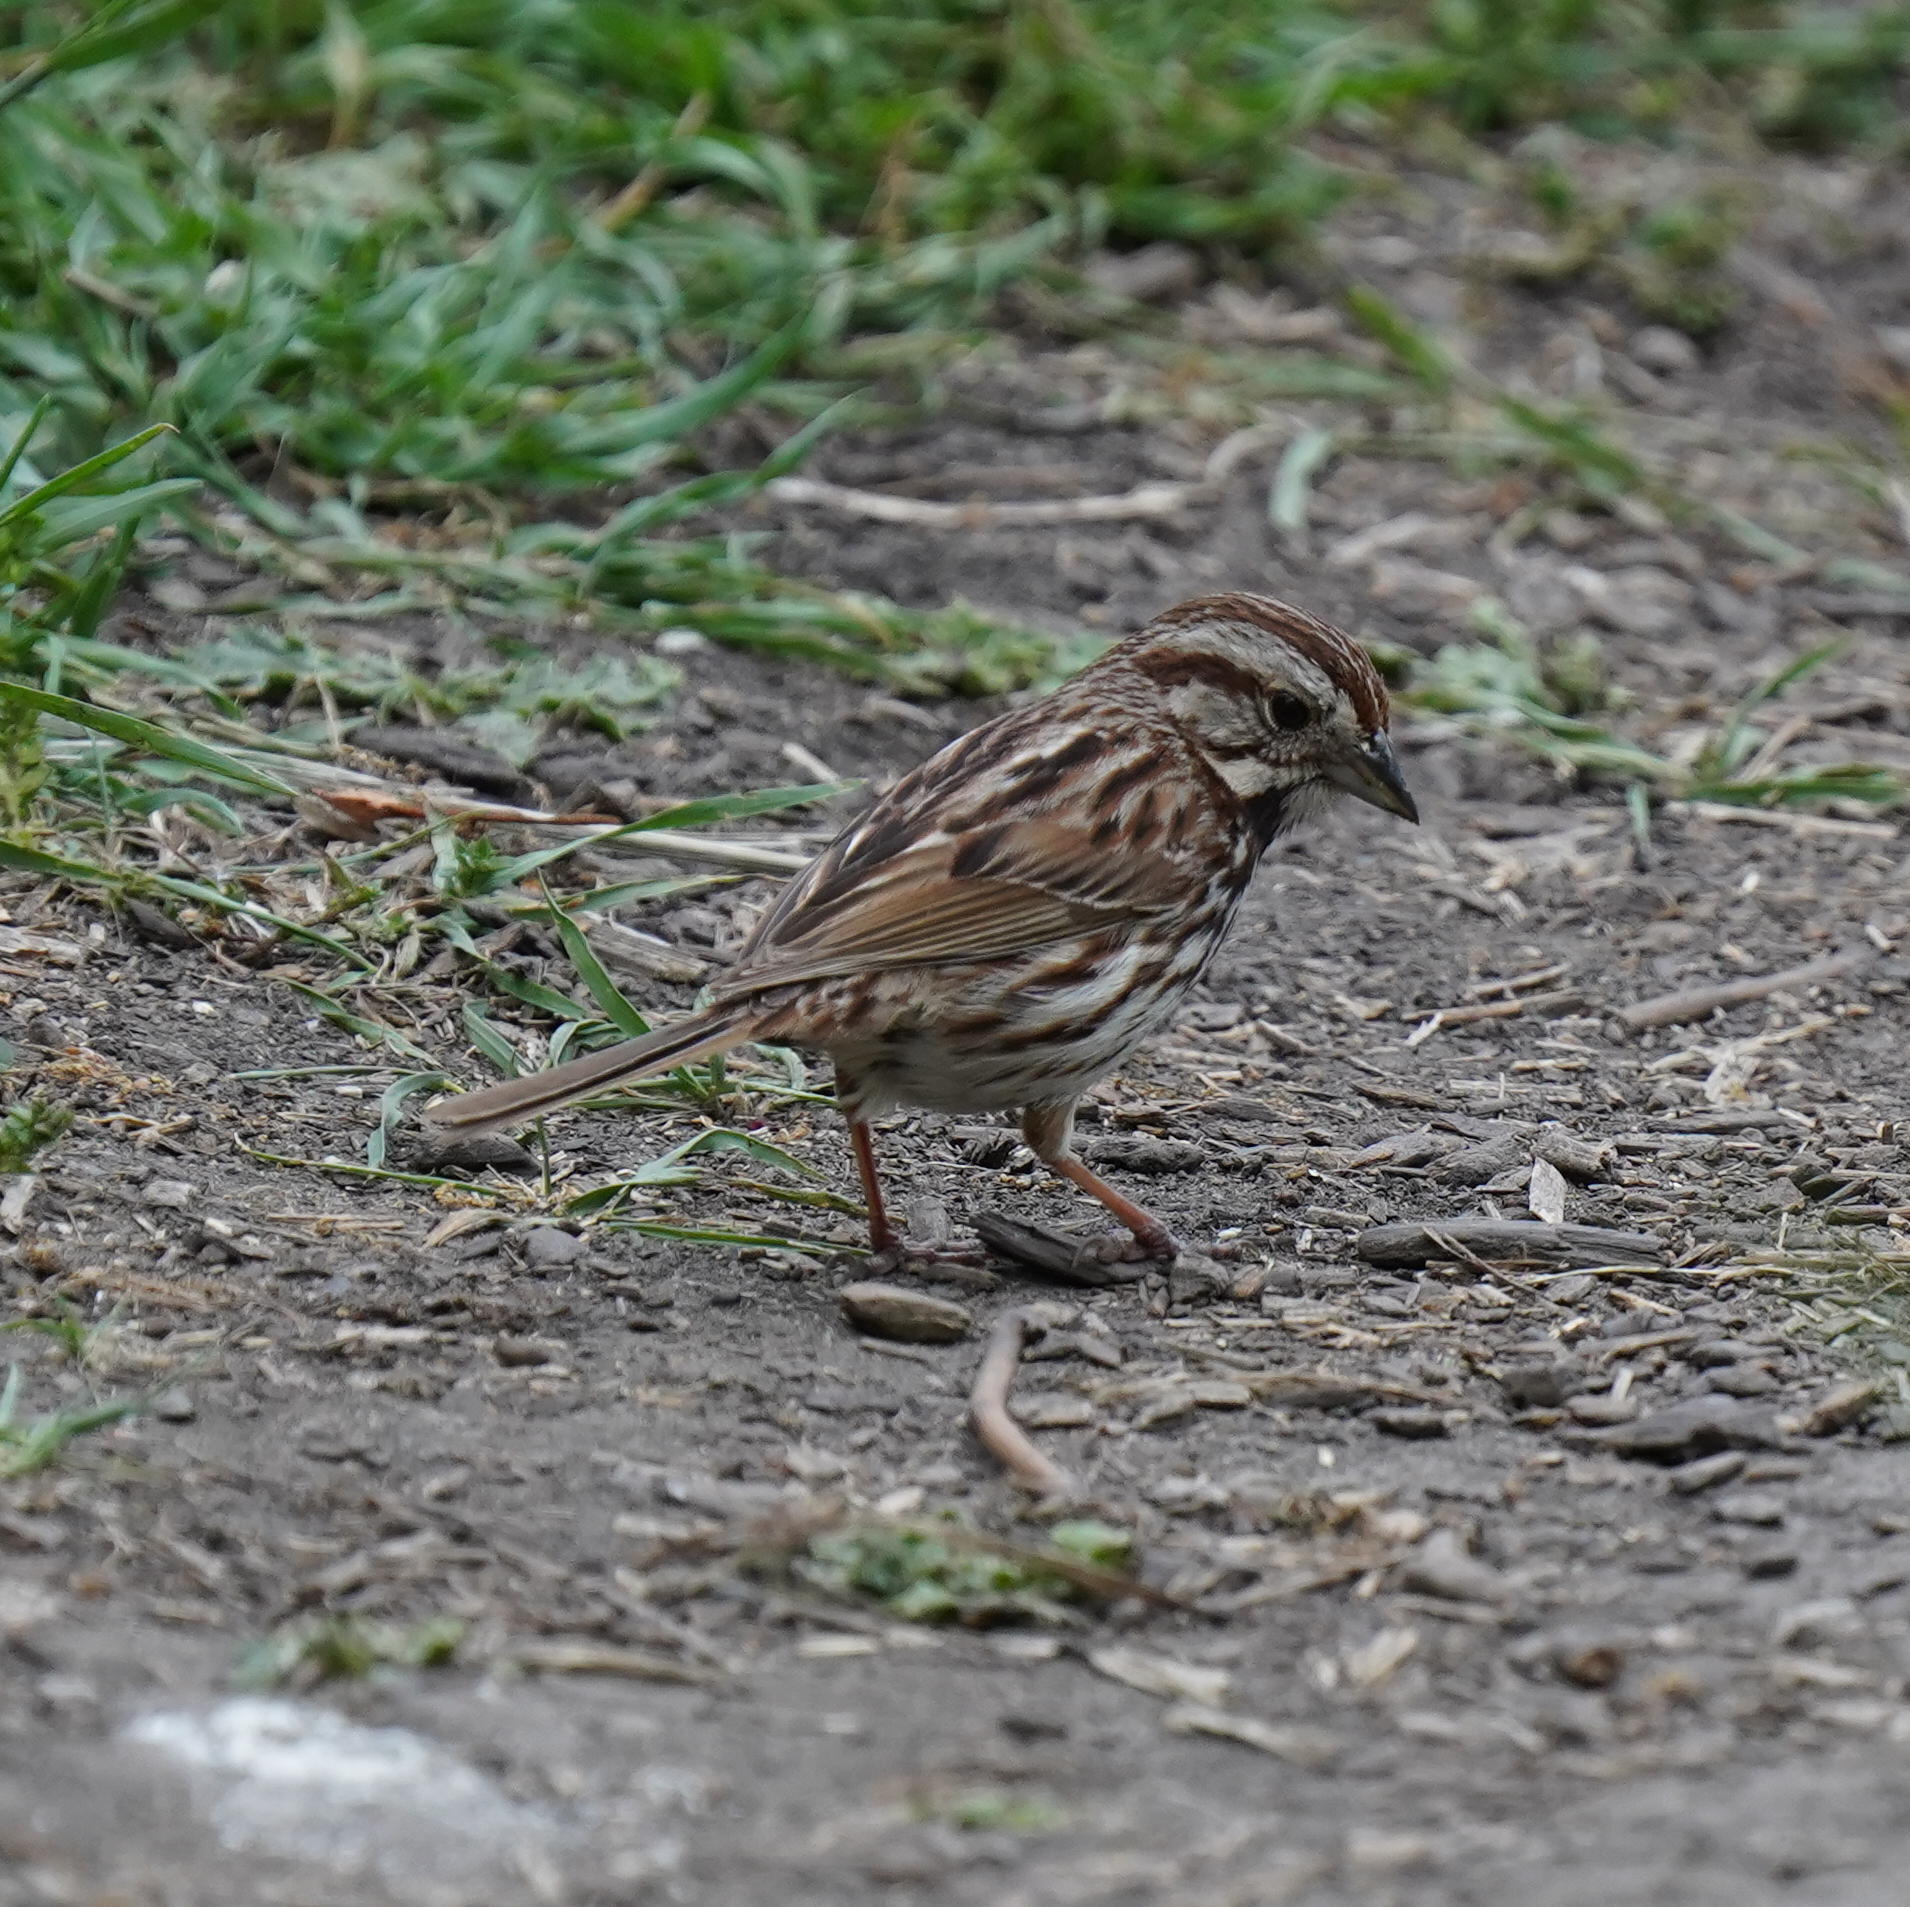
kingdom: Animalia
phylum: Chordata
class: Aves
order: Passeriformes
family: Passerellidae
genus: Melospiza
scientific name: Melospiza melodia
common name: Song sparrow
